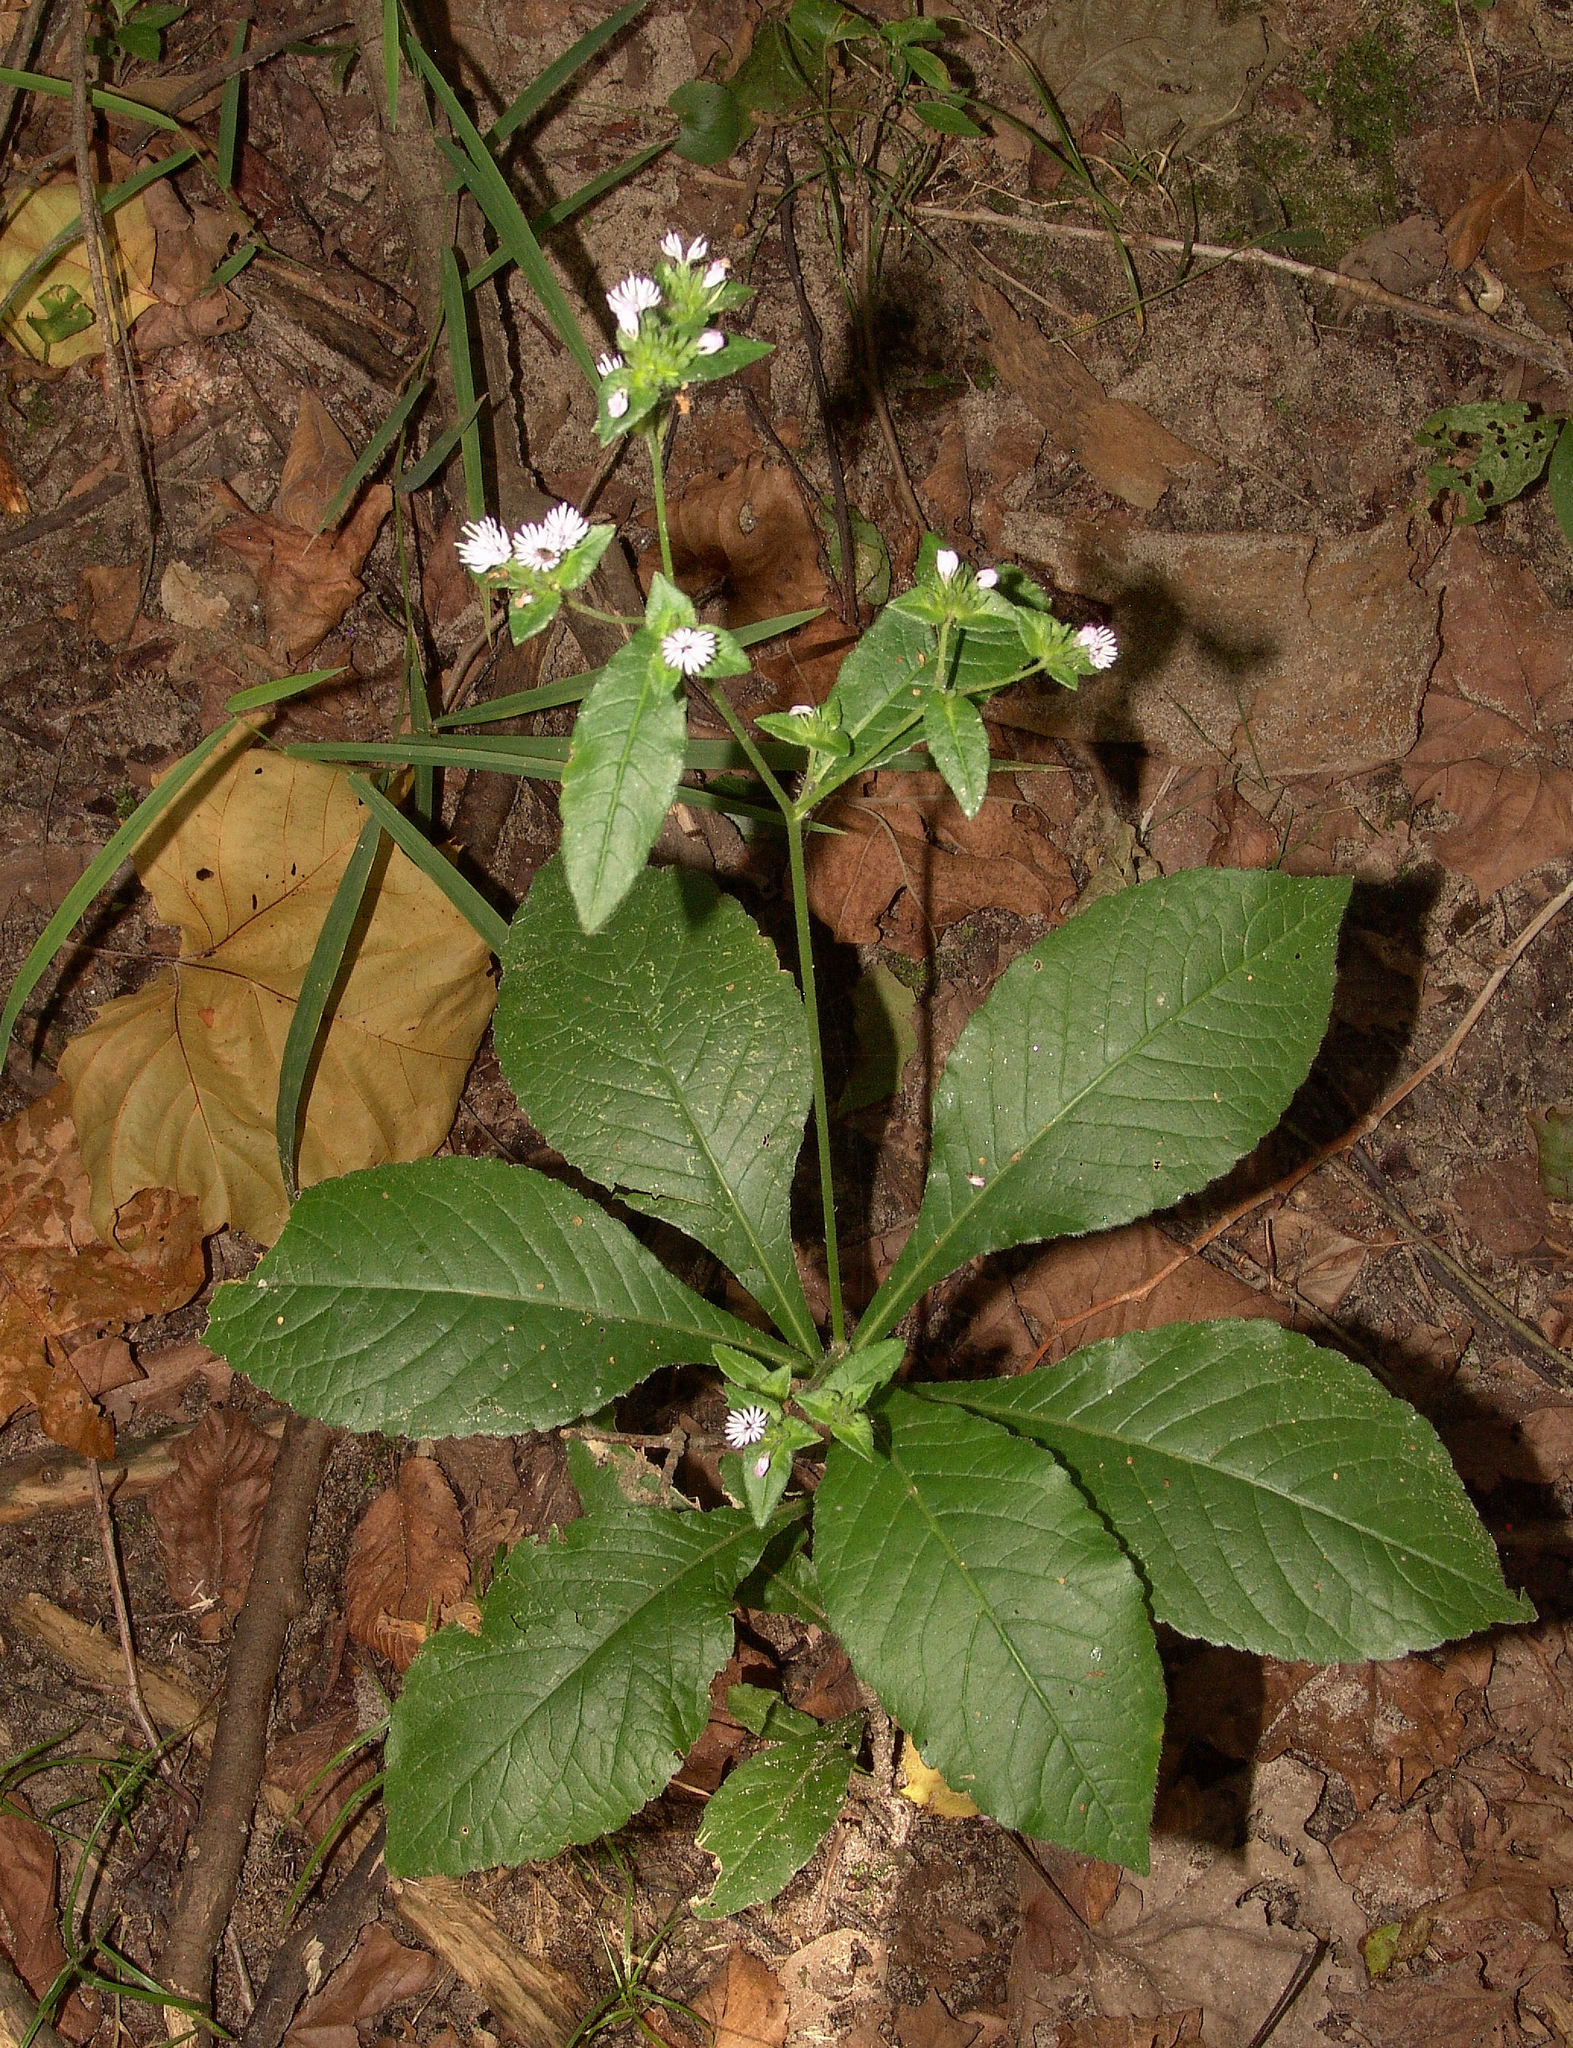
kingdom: Plantae
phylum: Tracheophyta
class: Magnoliopsida
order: Asterales
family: Asteraceae
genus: Elephantopus
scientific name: Elephantopus tomentosus
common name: Tobacco-weed
